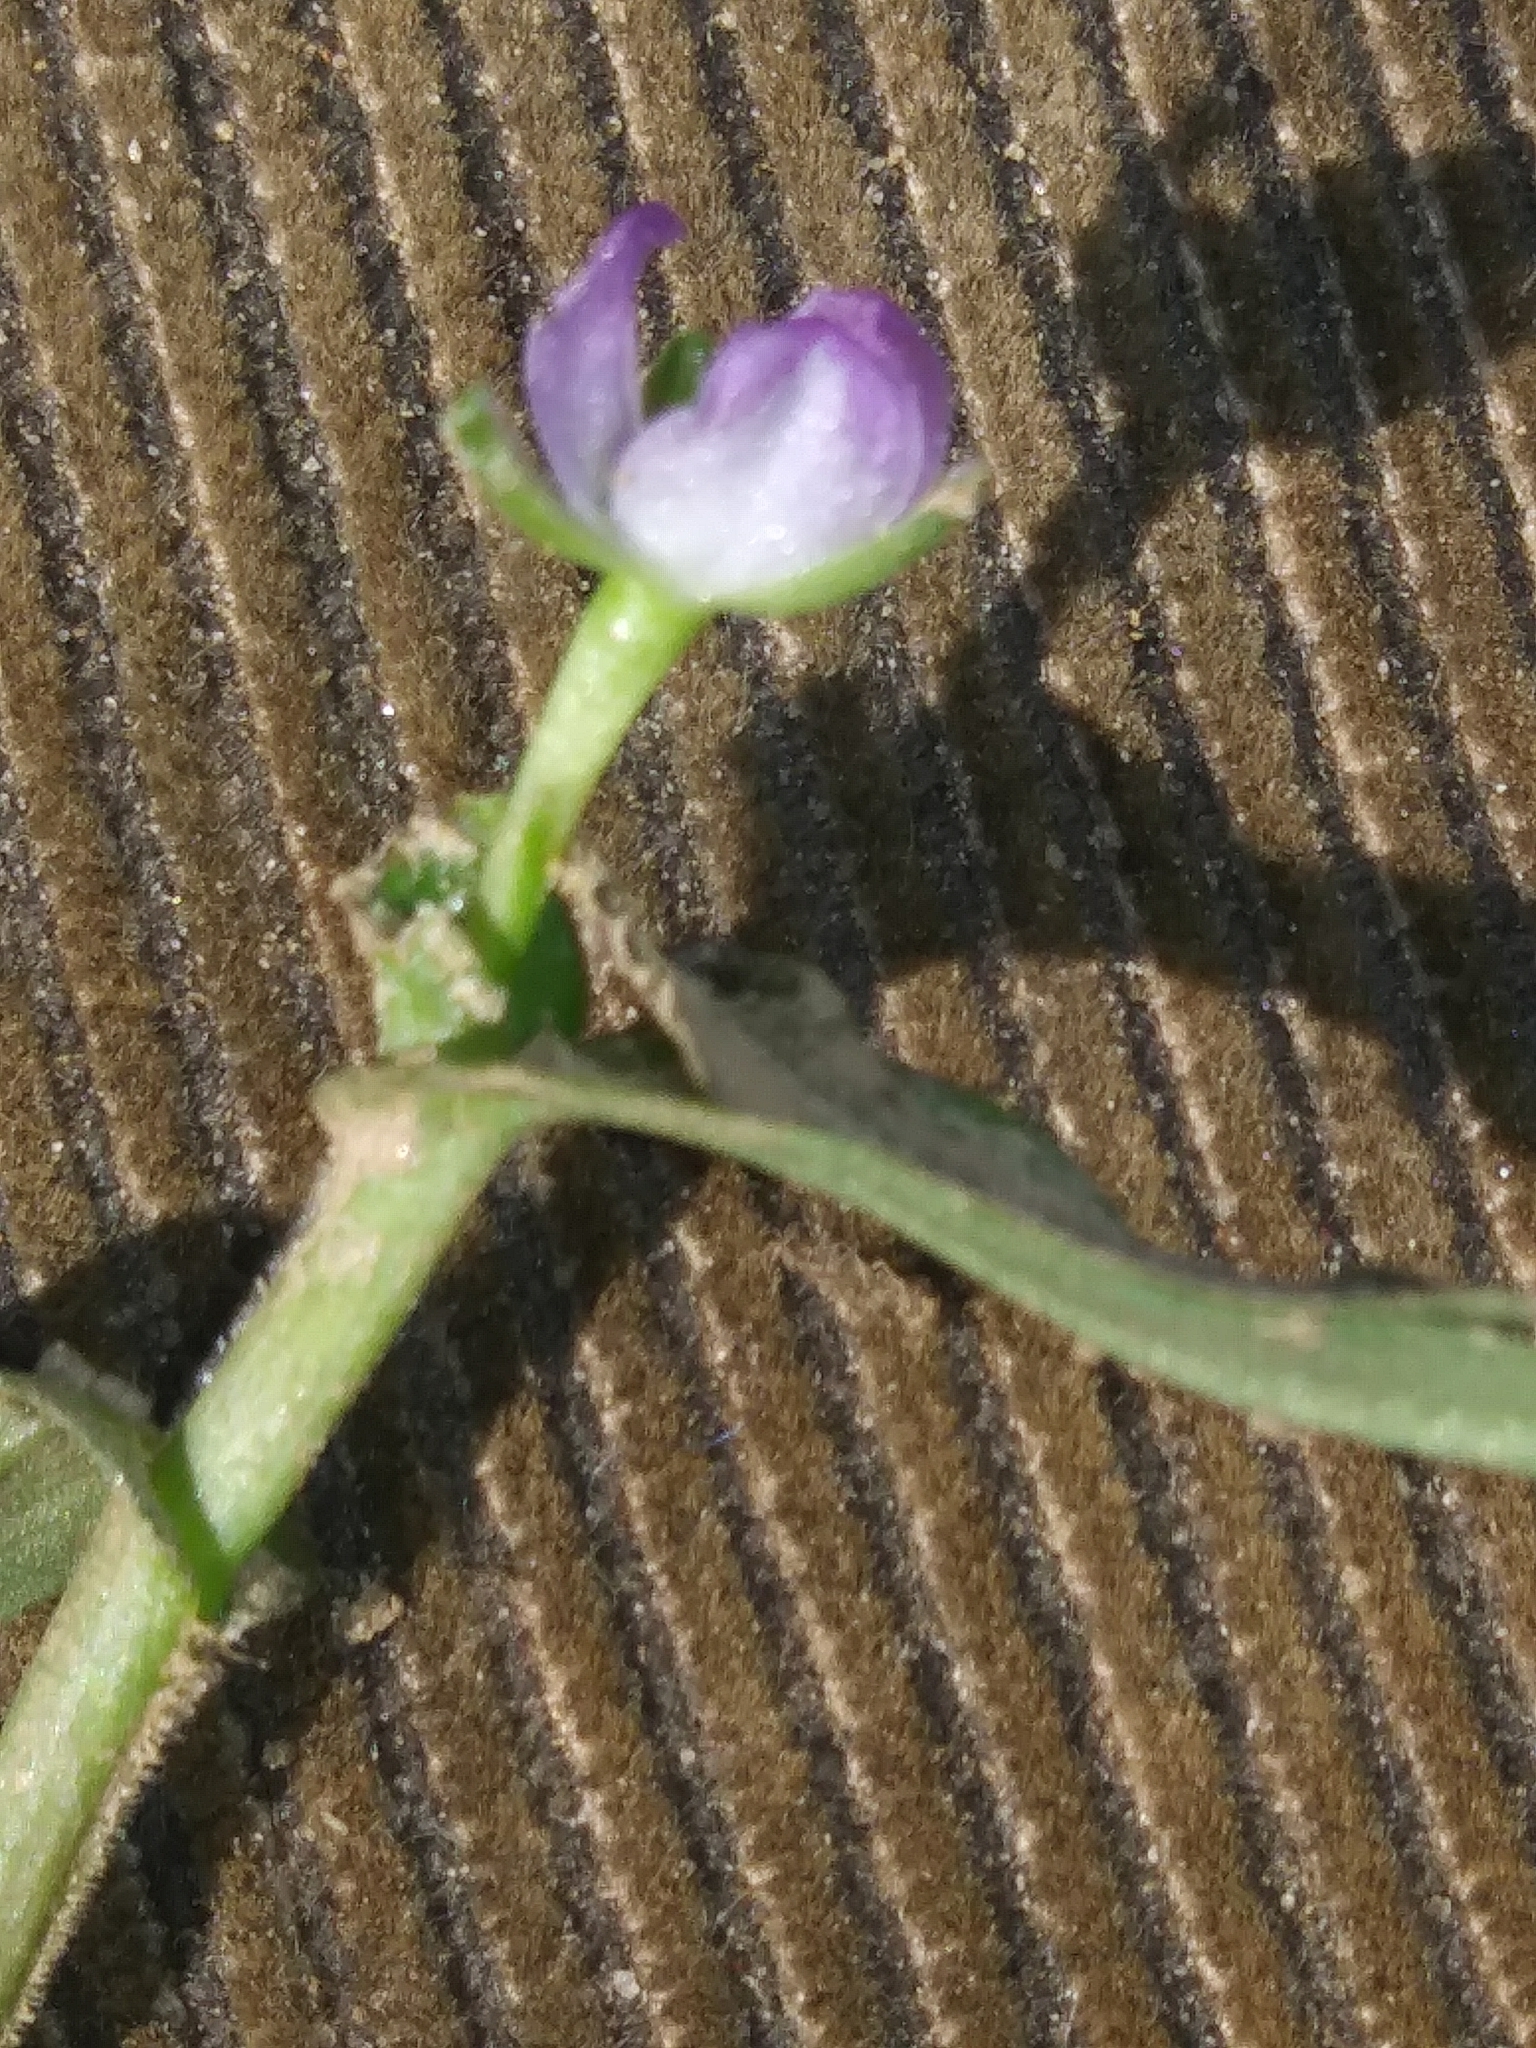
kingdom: Plantae
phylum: Tracheophyta
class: Liliopsida
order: Commelinales
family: Commelinaceae
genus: Murdannia
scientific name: Murdannia keisak
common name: Wartremoving herb
